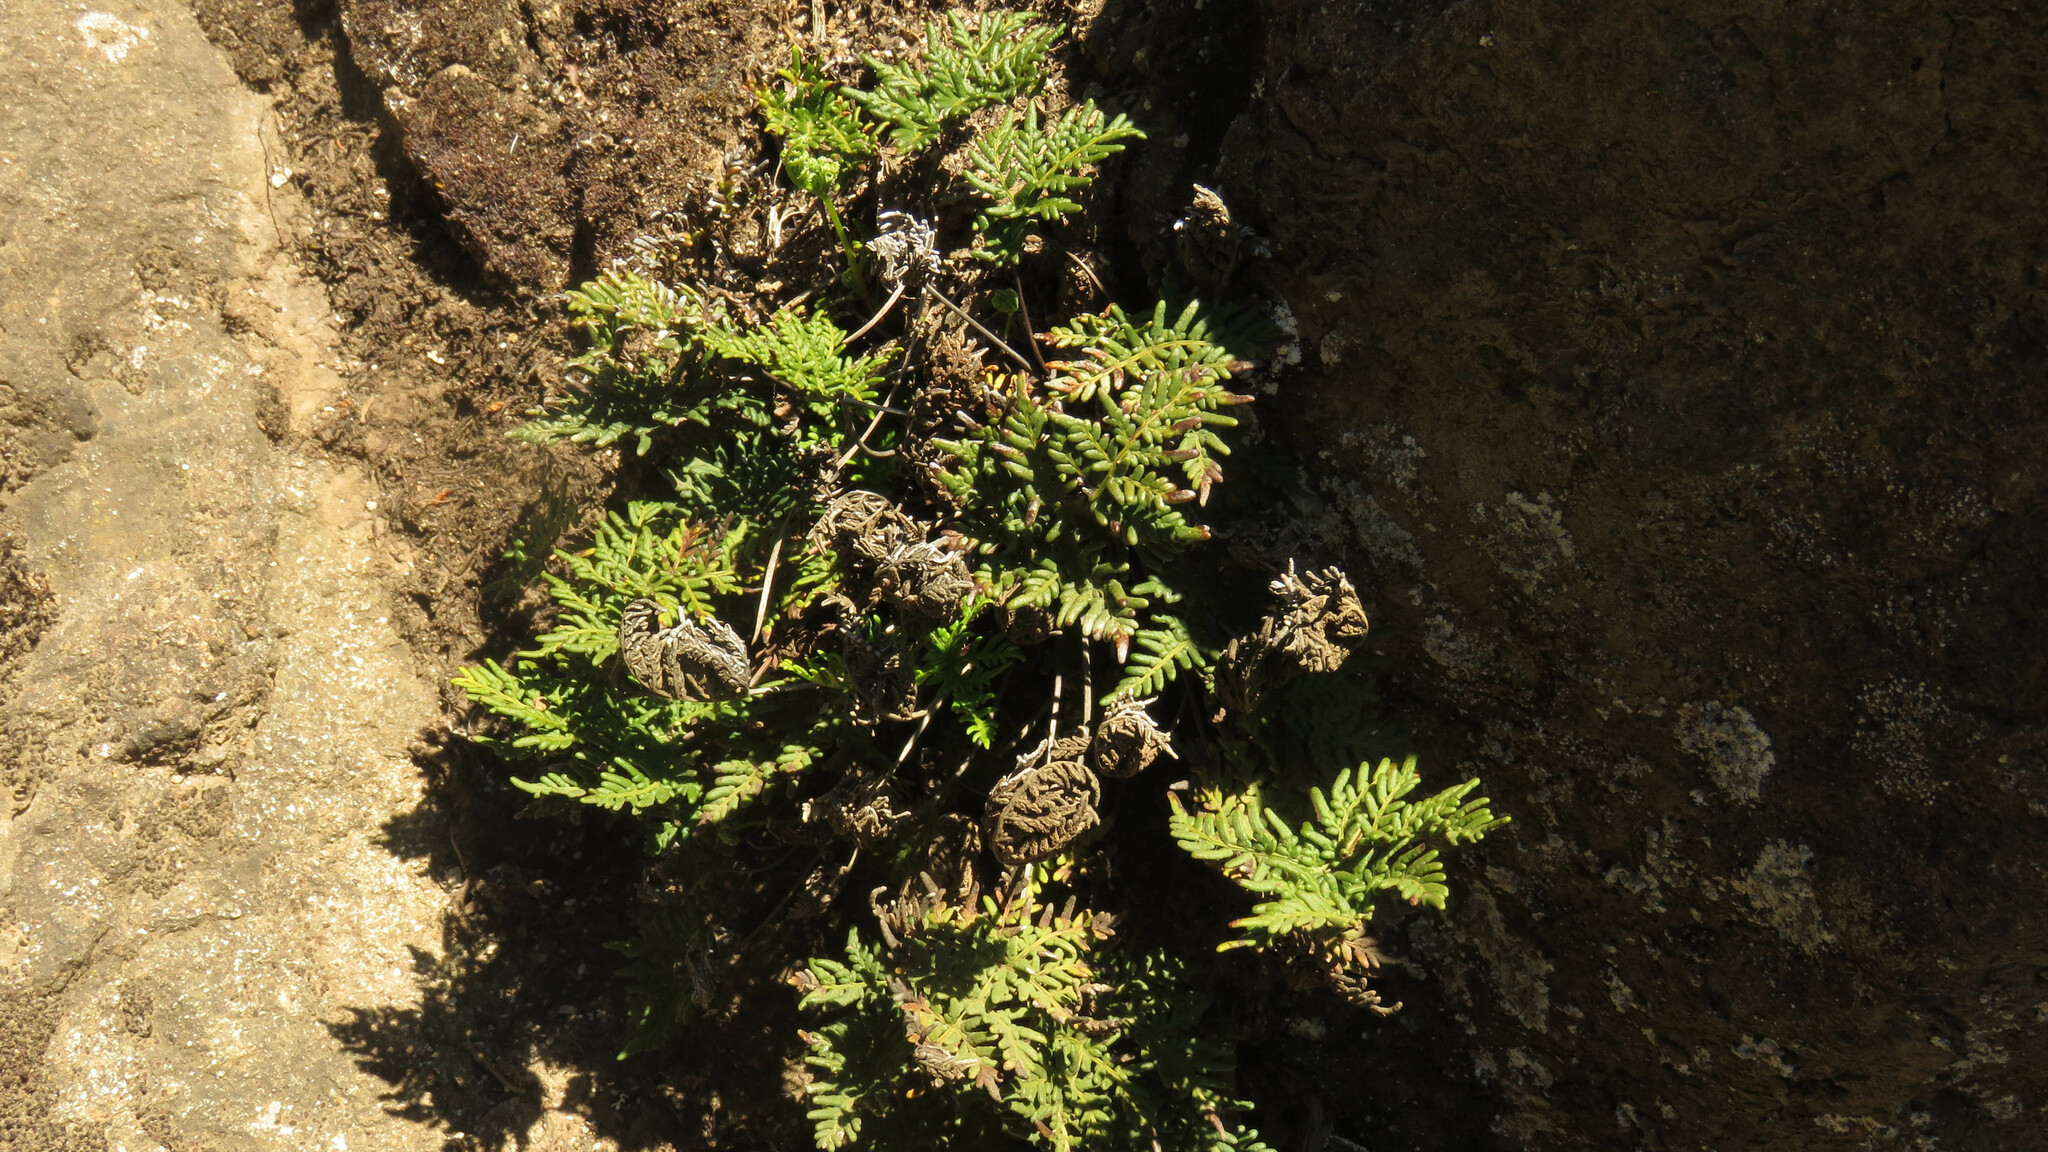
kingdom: Plantae
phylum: Tracheophyta
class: Polypodiopsida
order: Polypodiales
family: Pteridaceae
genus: Cheilanthes
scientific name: Cheilanthes glauca
